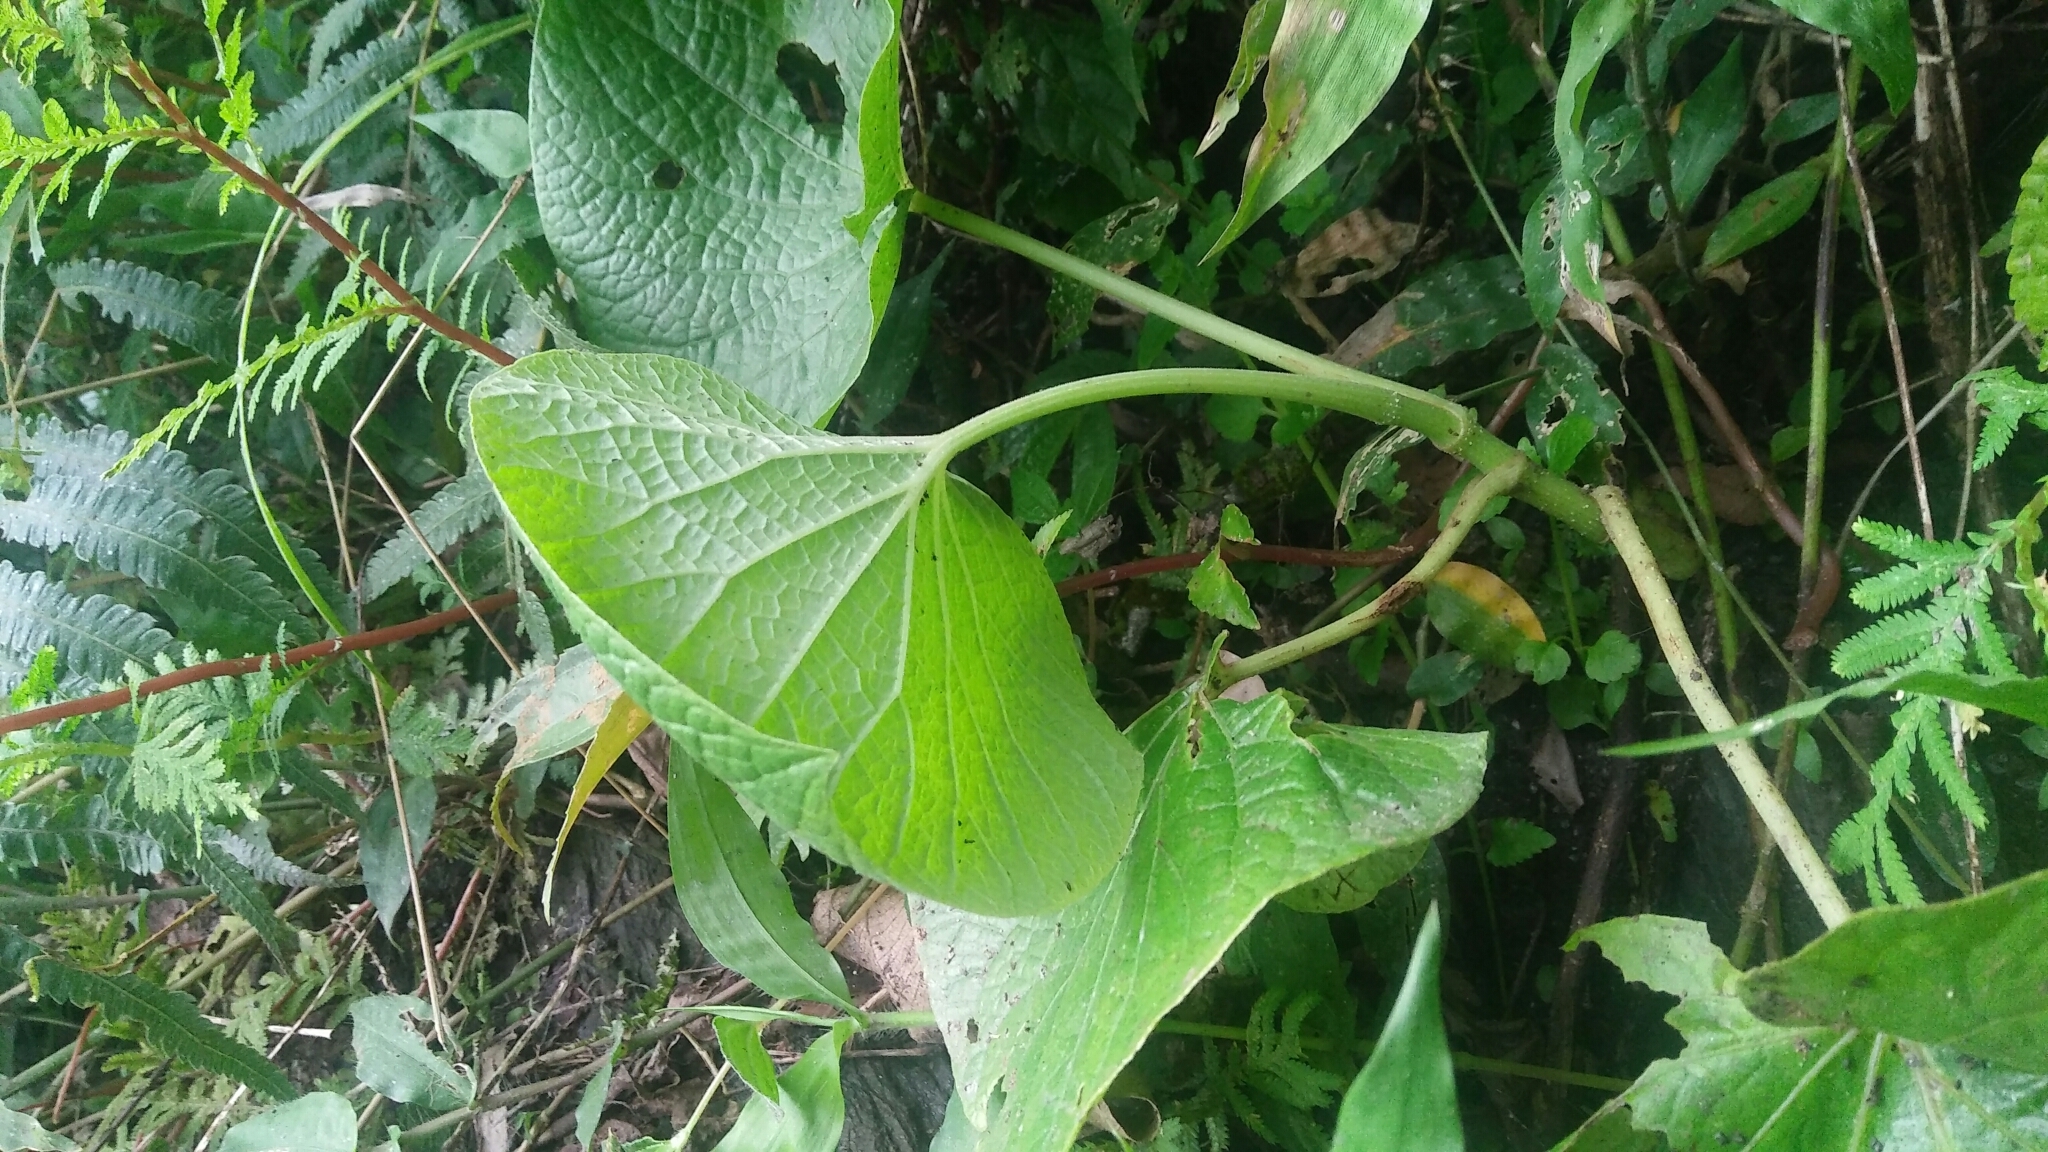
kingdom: Plantae
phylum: Tracheophyta
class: Magnoliopsida
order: Piperales
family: Piperaceae
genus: Piper
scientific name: Piper umbellatum
